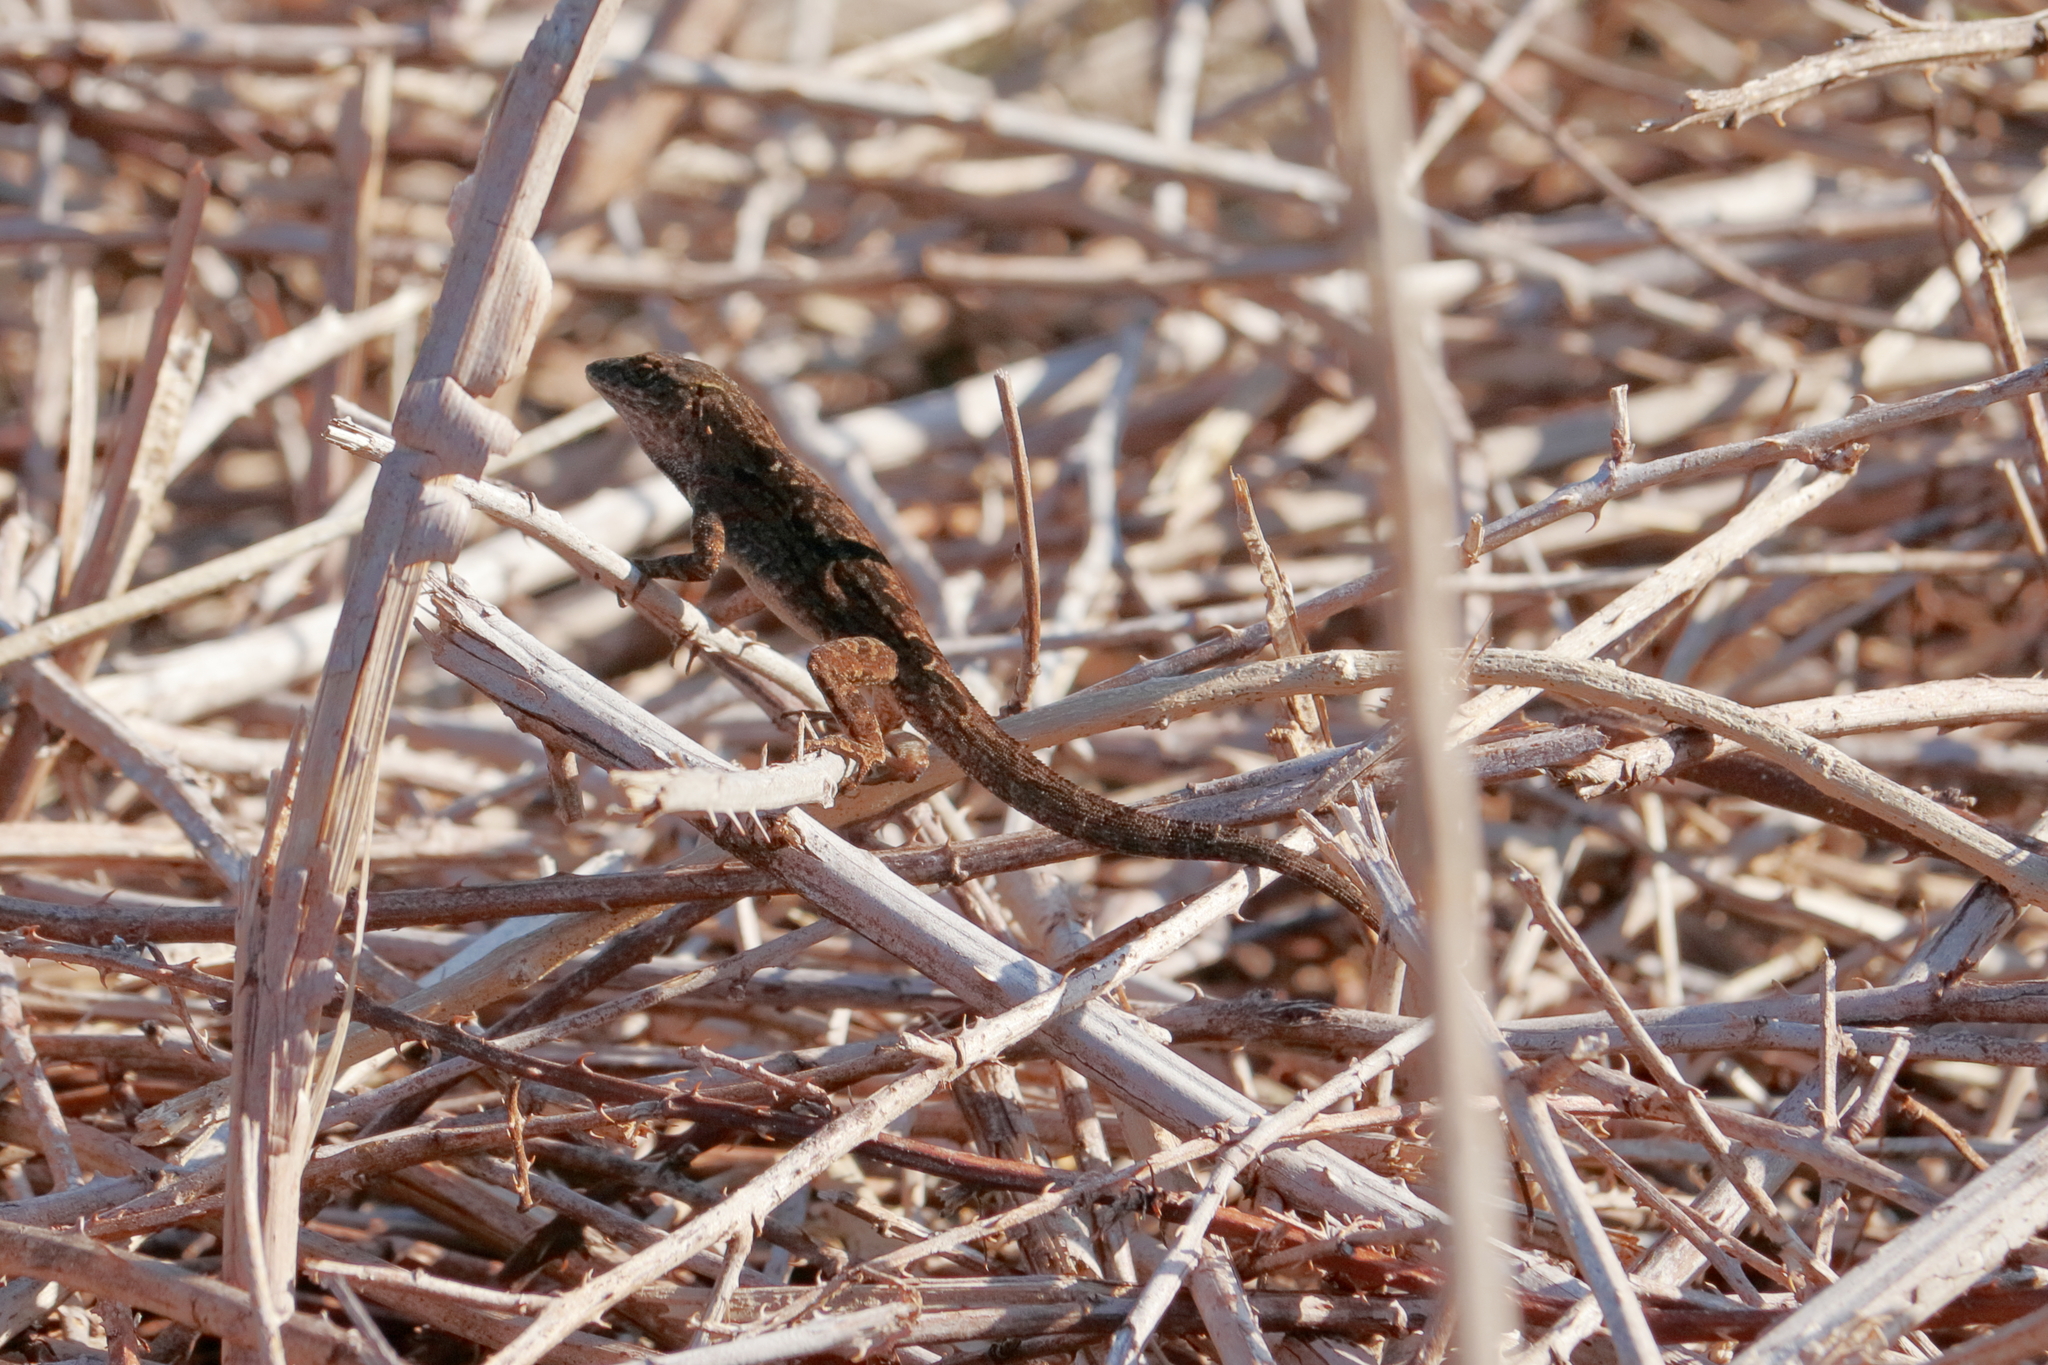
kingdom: Animalia
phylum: Chordata
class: Squamata
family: Dactyloidae
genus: Anolis
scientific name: Anolis sagrei
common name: Brown anole
